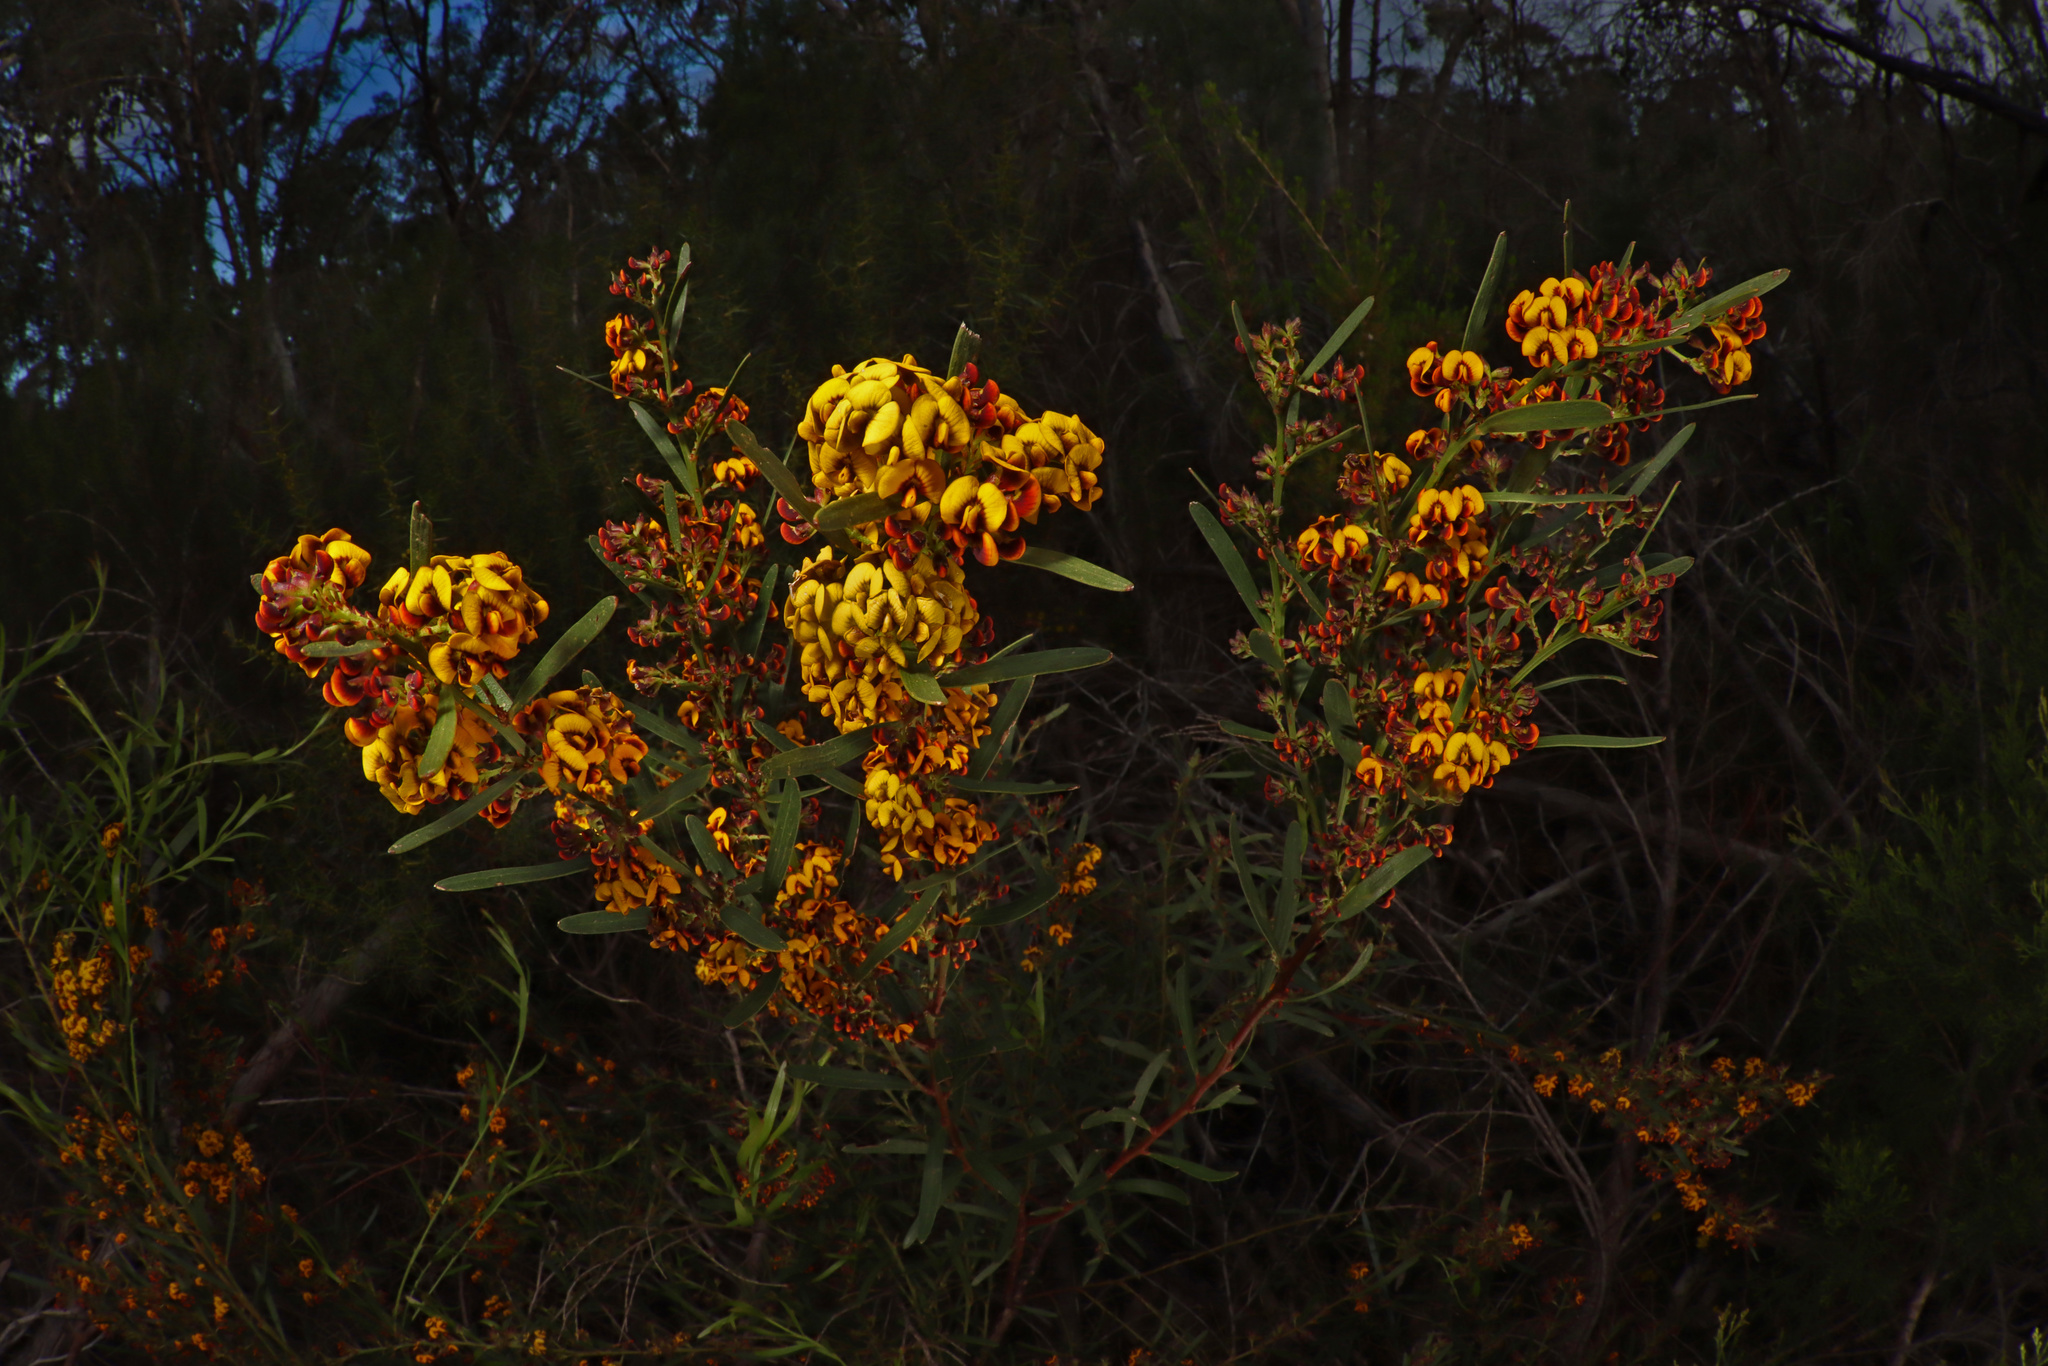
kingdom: Plantae
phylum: Tracheophyta
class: Magnoliopsida
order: Fabales
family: Fabaceae
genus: Daviesia
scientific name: Daviesia leptophylla
